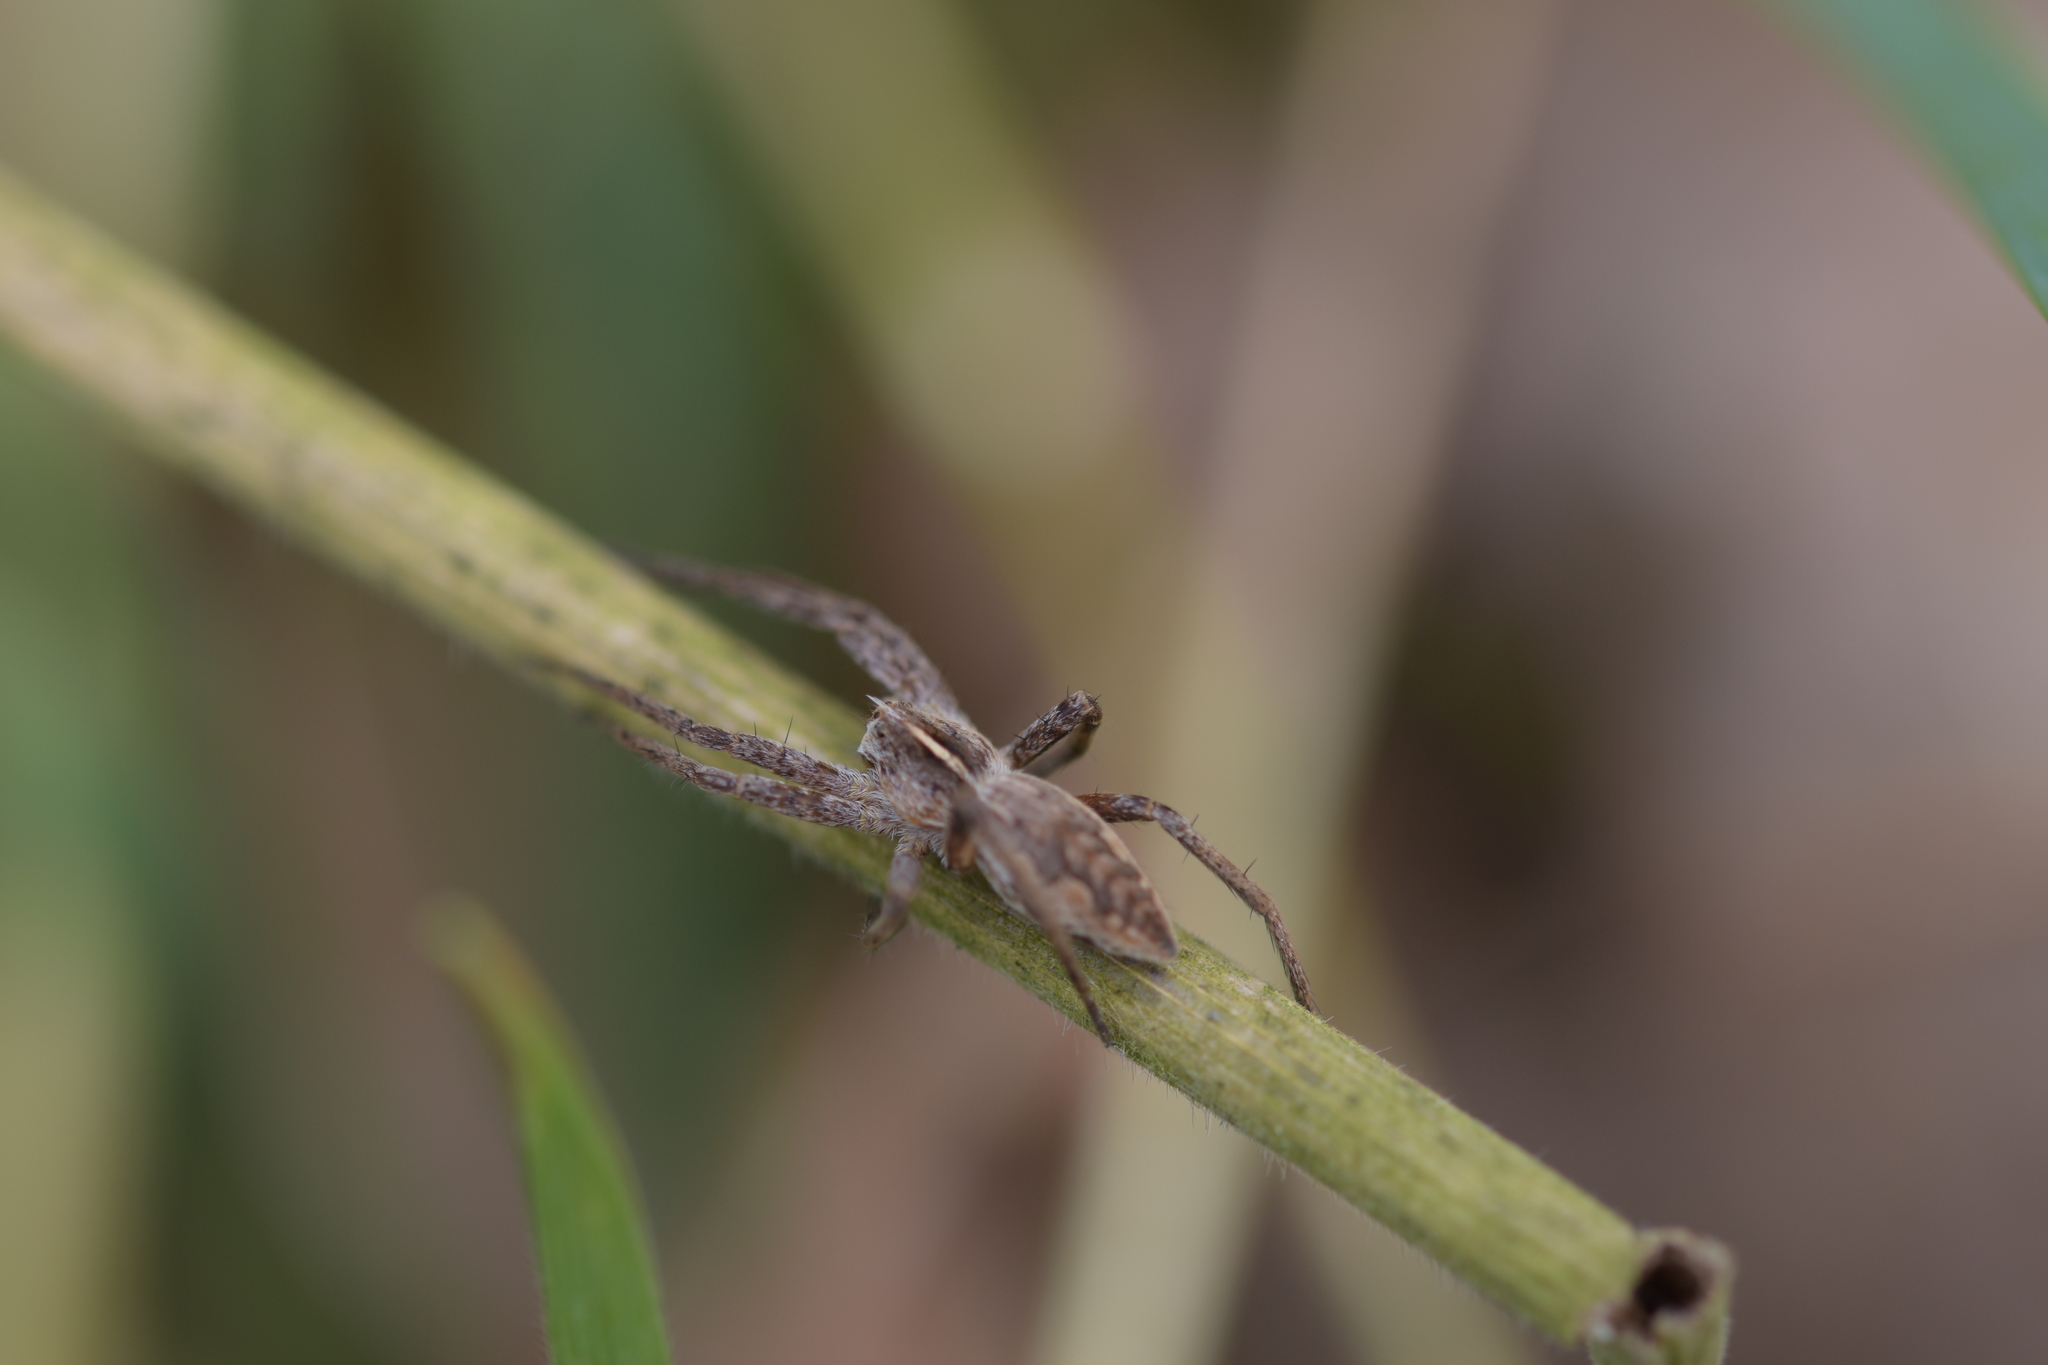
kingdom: Animalia
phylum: Arthropoda
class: Arachnida
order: Araneae
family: Pisauridae
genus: Pisaura
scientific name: Pisaura mirabilis
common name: Tent spider
